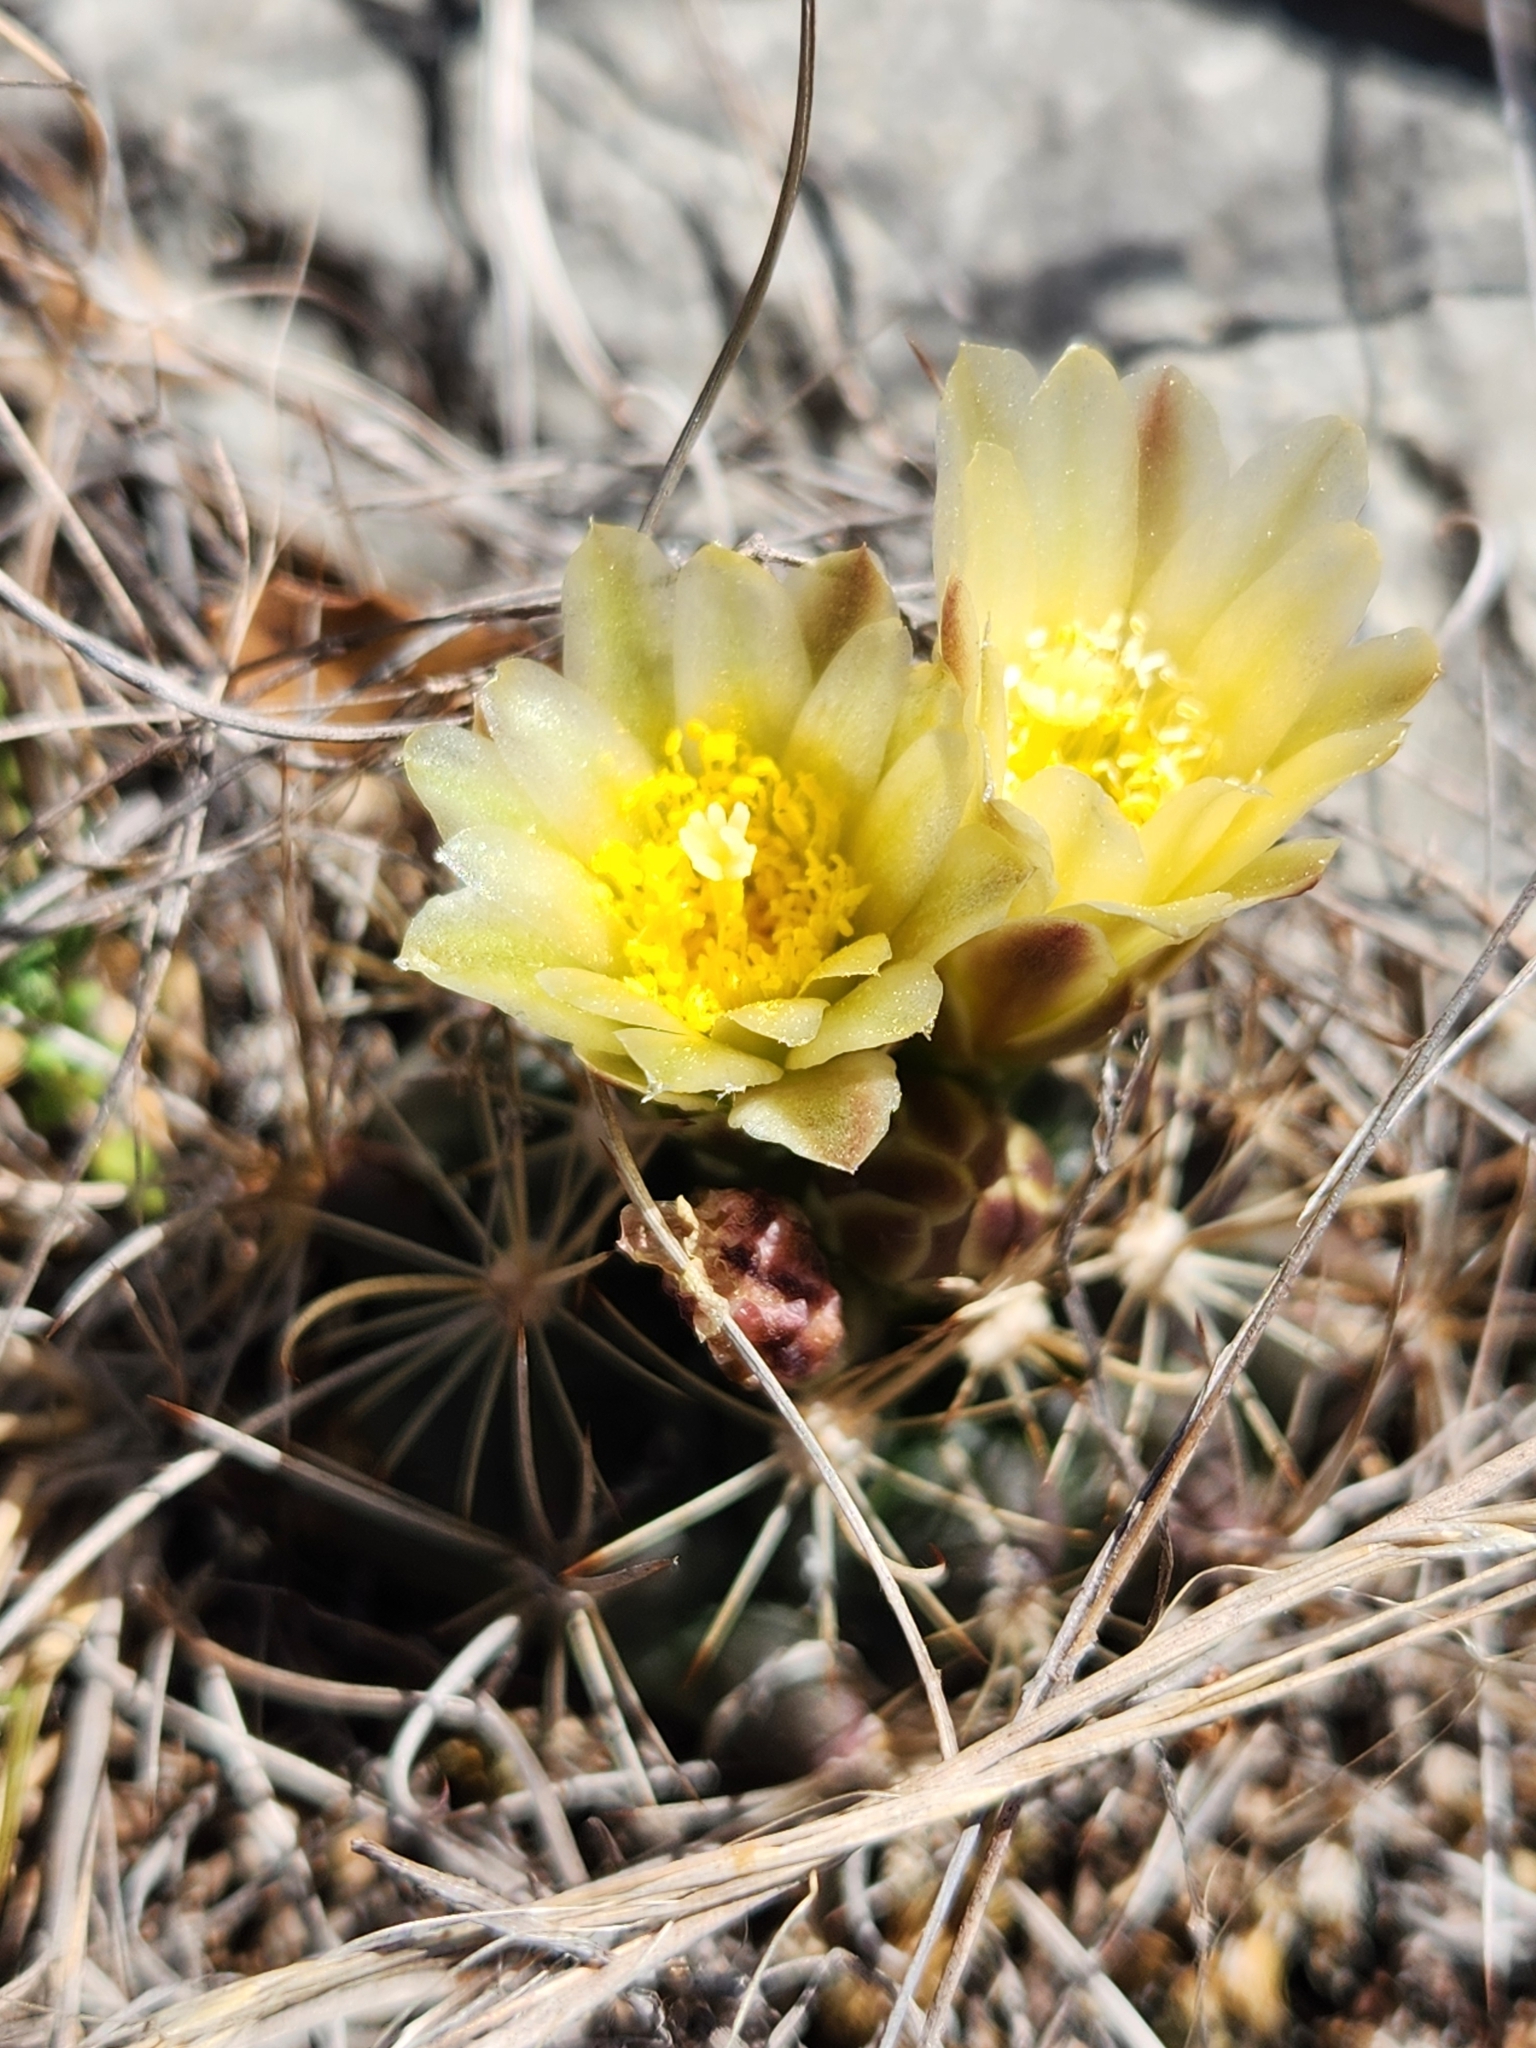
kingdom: Plantae
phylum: Tracheophyta
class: Magnoliopsida
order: Caryophyllales
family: Cactaceae
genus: Sclerocactus
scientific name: Sclerocactus brevihamatus
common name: Engelmann's fishhook cactus
